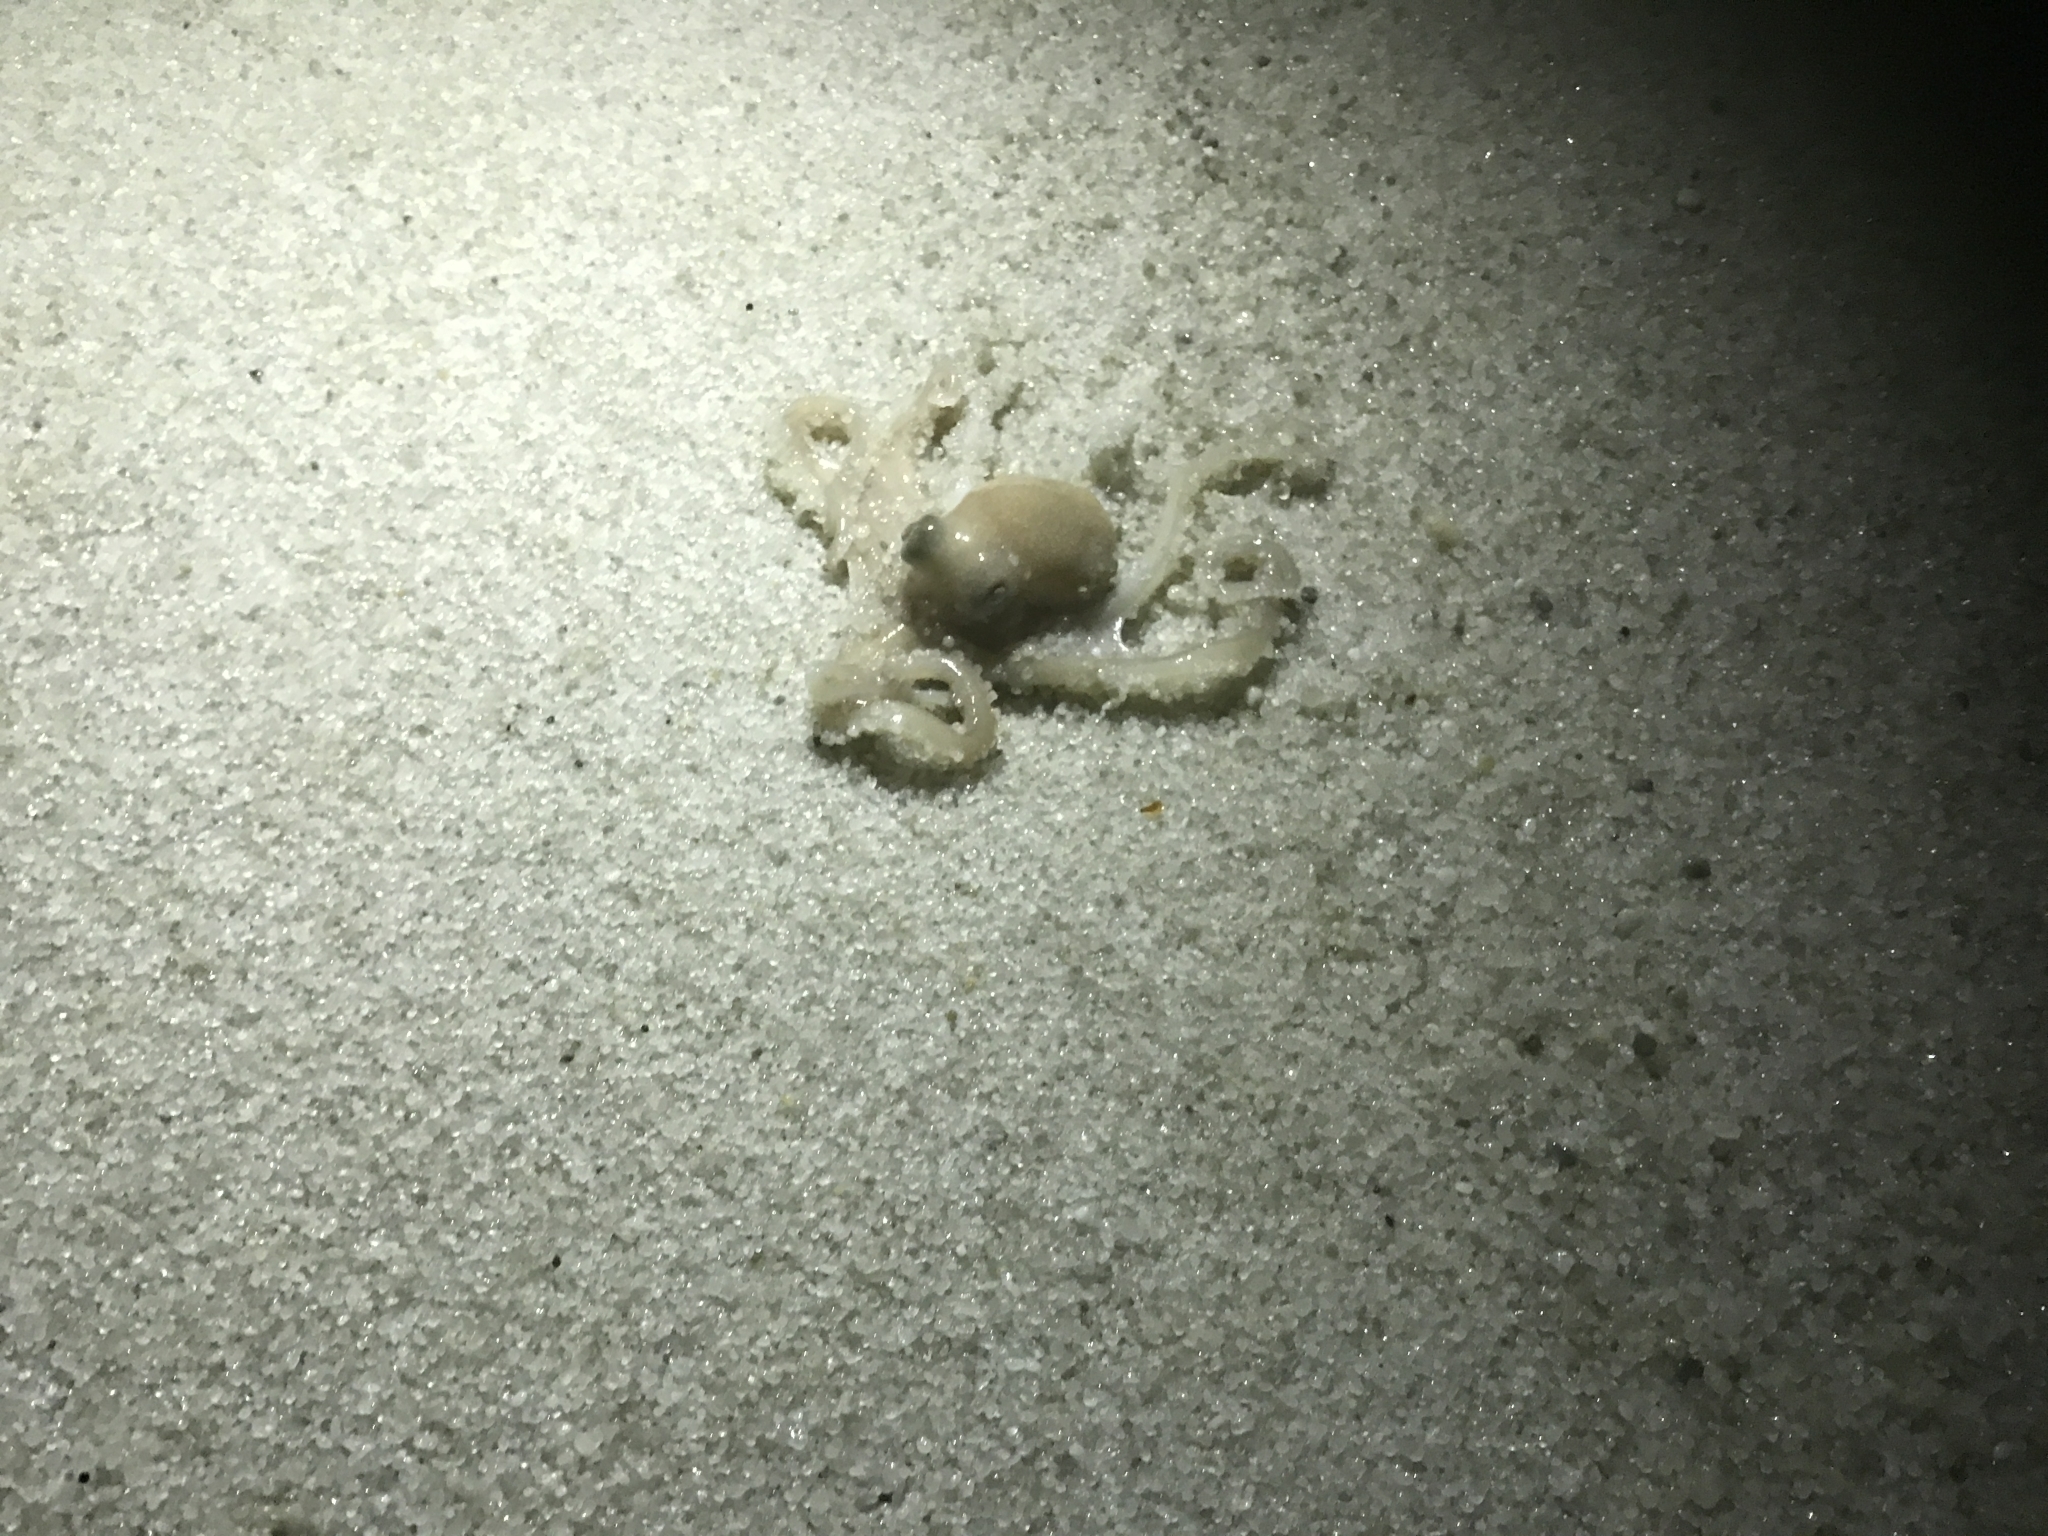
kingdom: Animalia
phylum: Mollusca
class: Cephalopoda
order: Octopoda
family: Octopodidae
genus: Octopus
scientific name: Octopus kaurna
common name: Southern sand octopus
